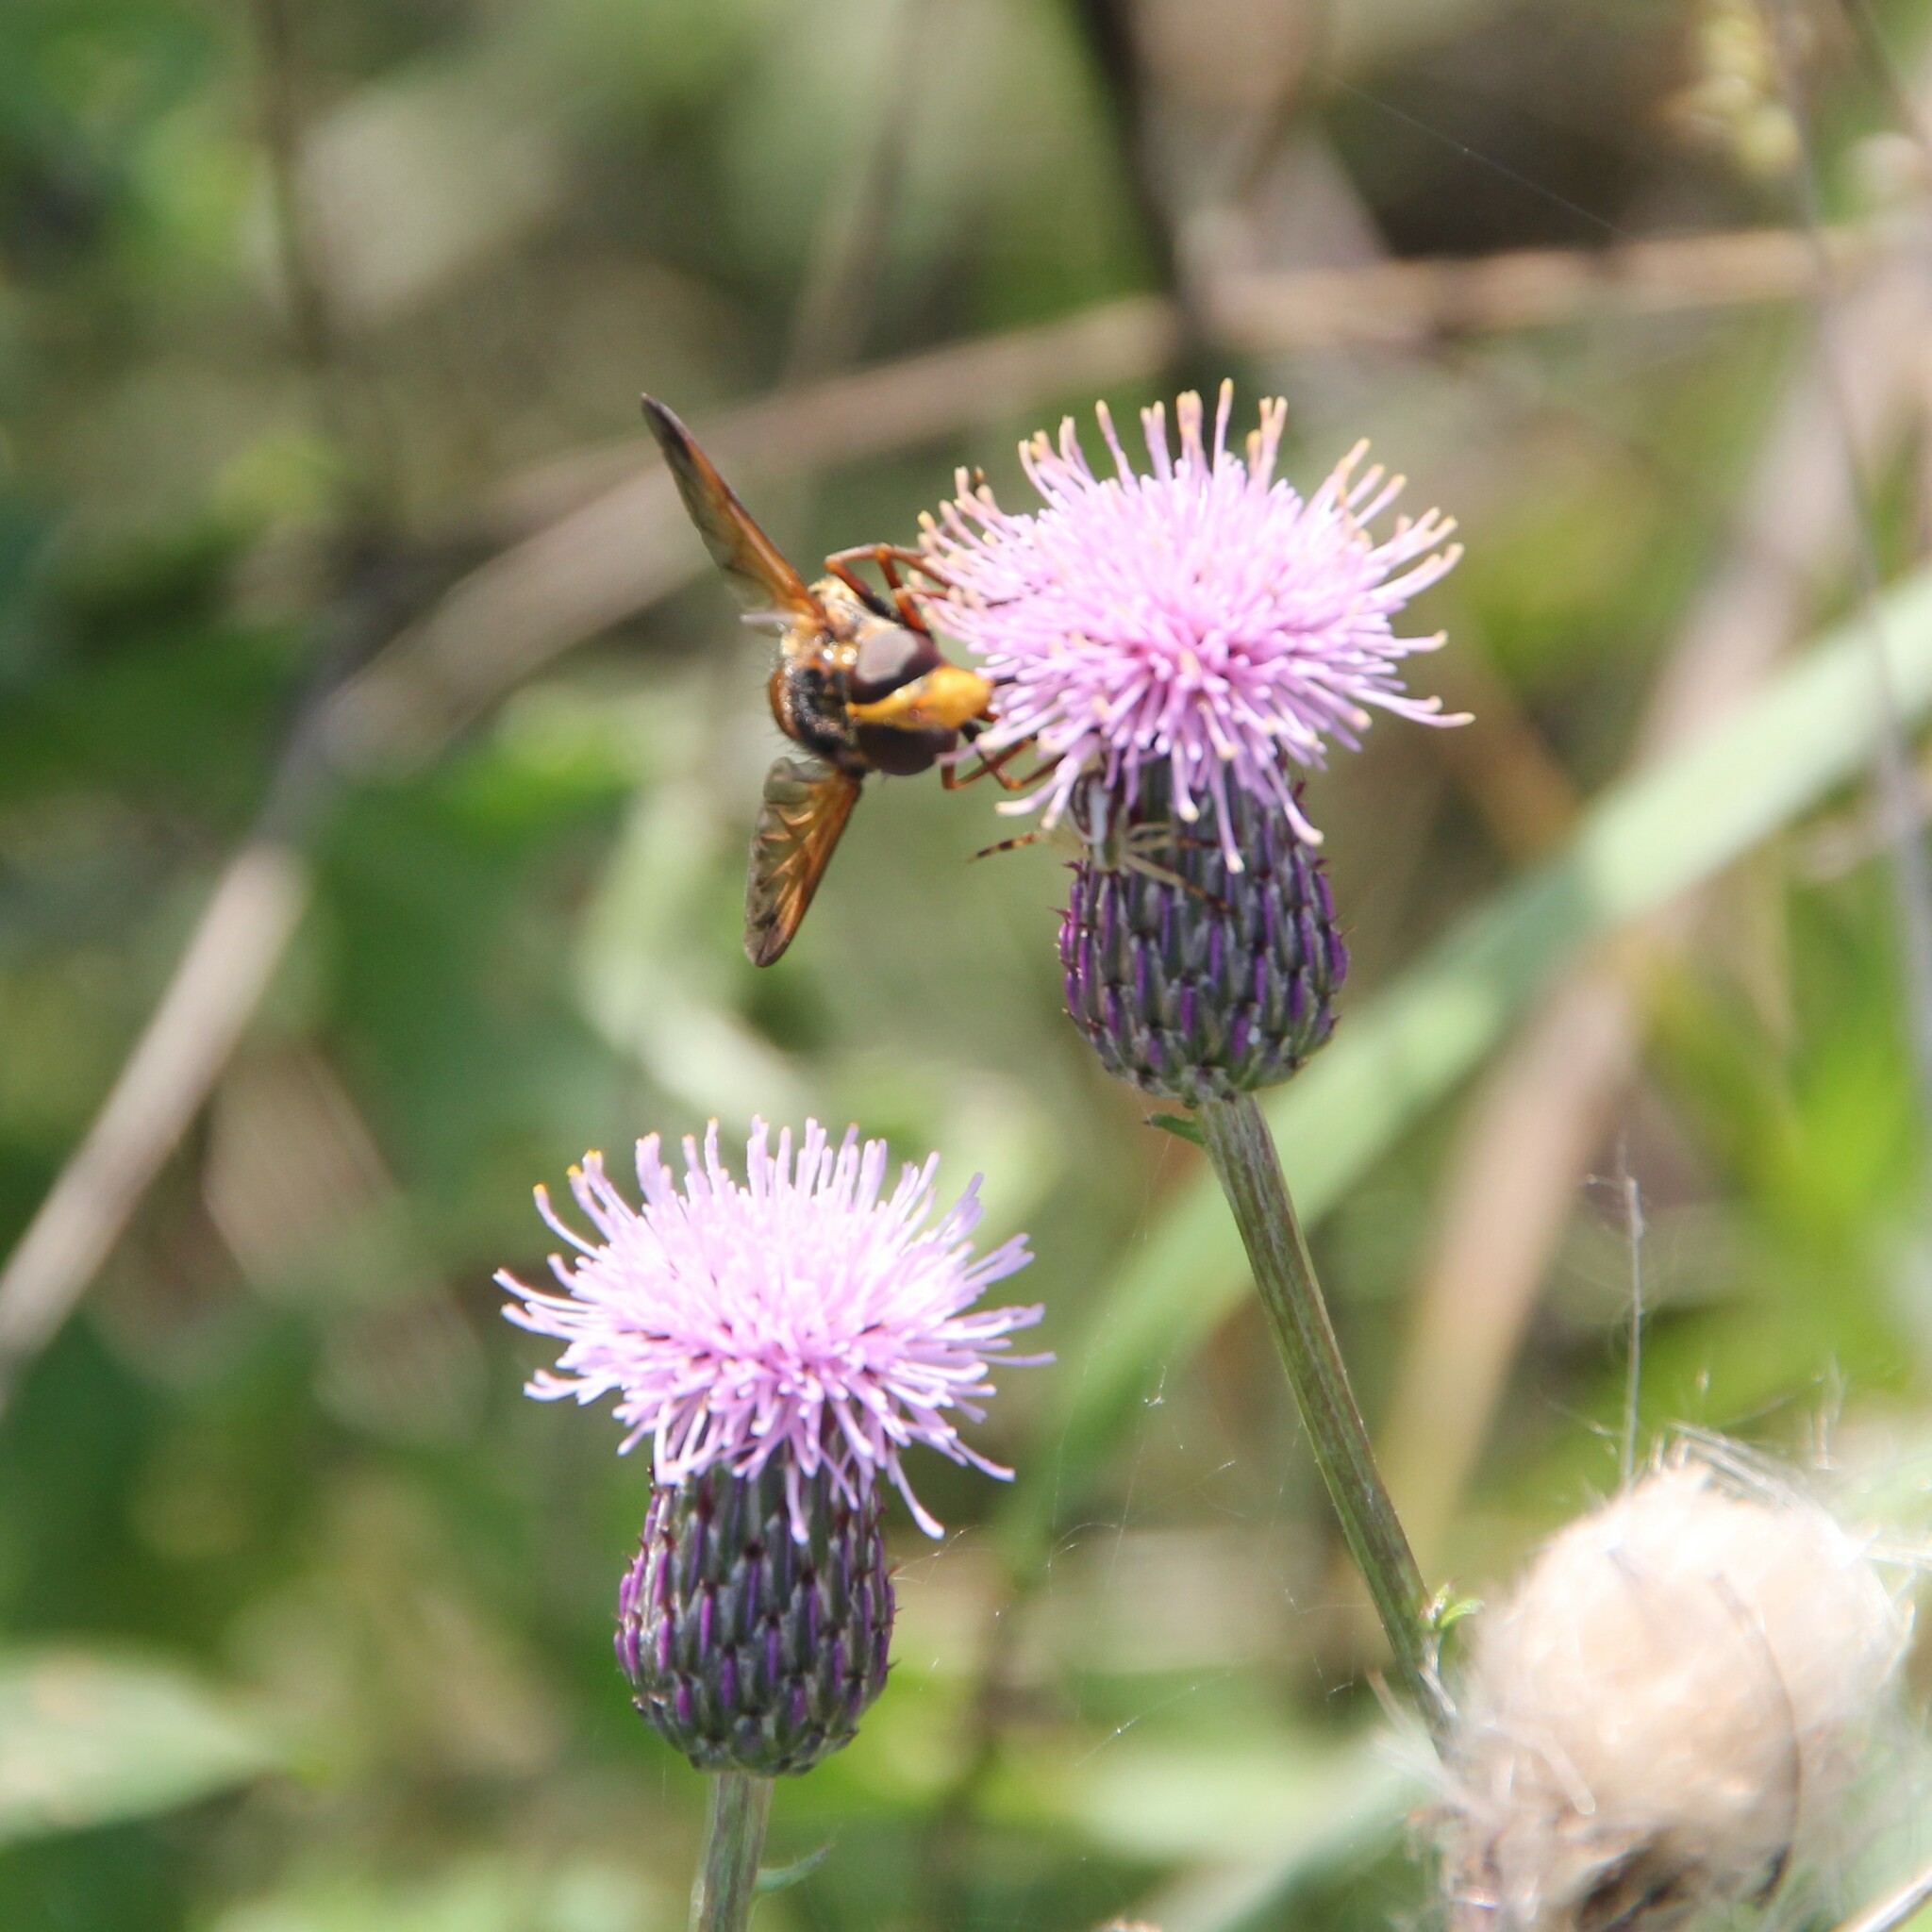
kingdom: Animalia
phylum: Arthropoda
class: Insecta
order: Diptera
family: Syrphidae
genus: Volucella
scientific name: Volucella inanis
